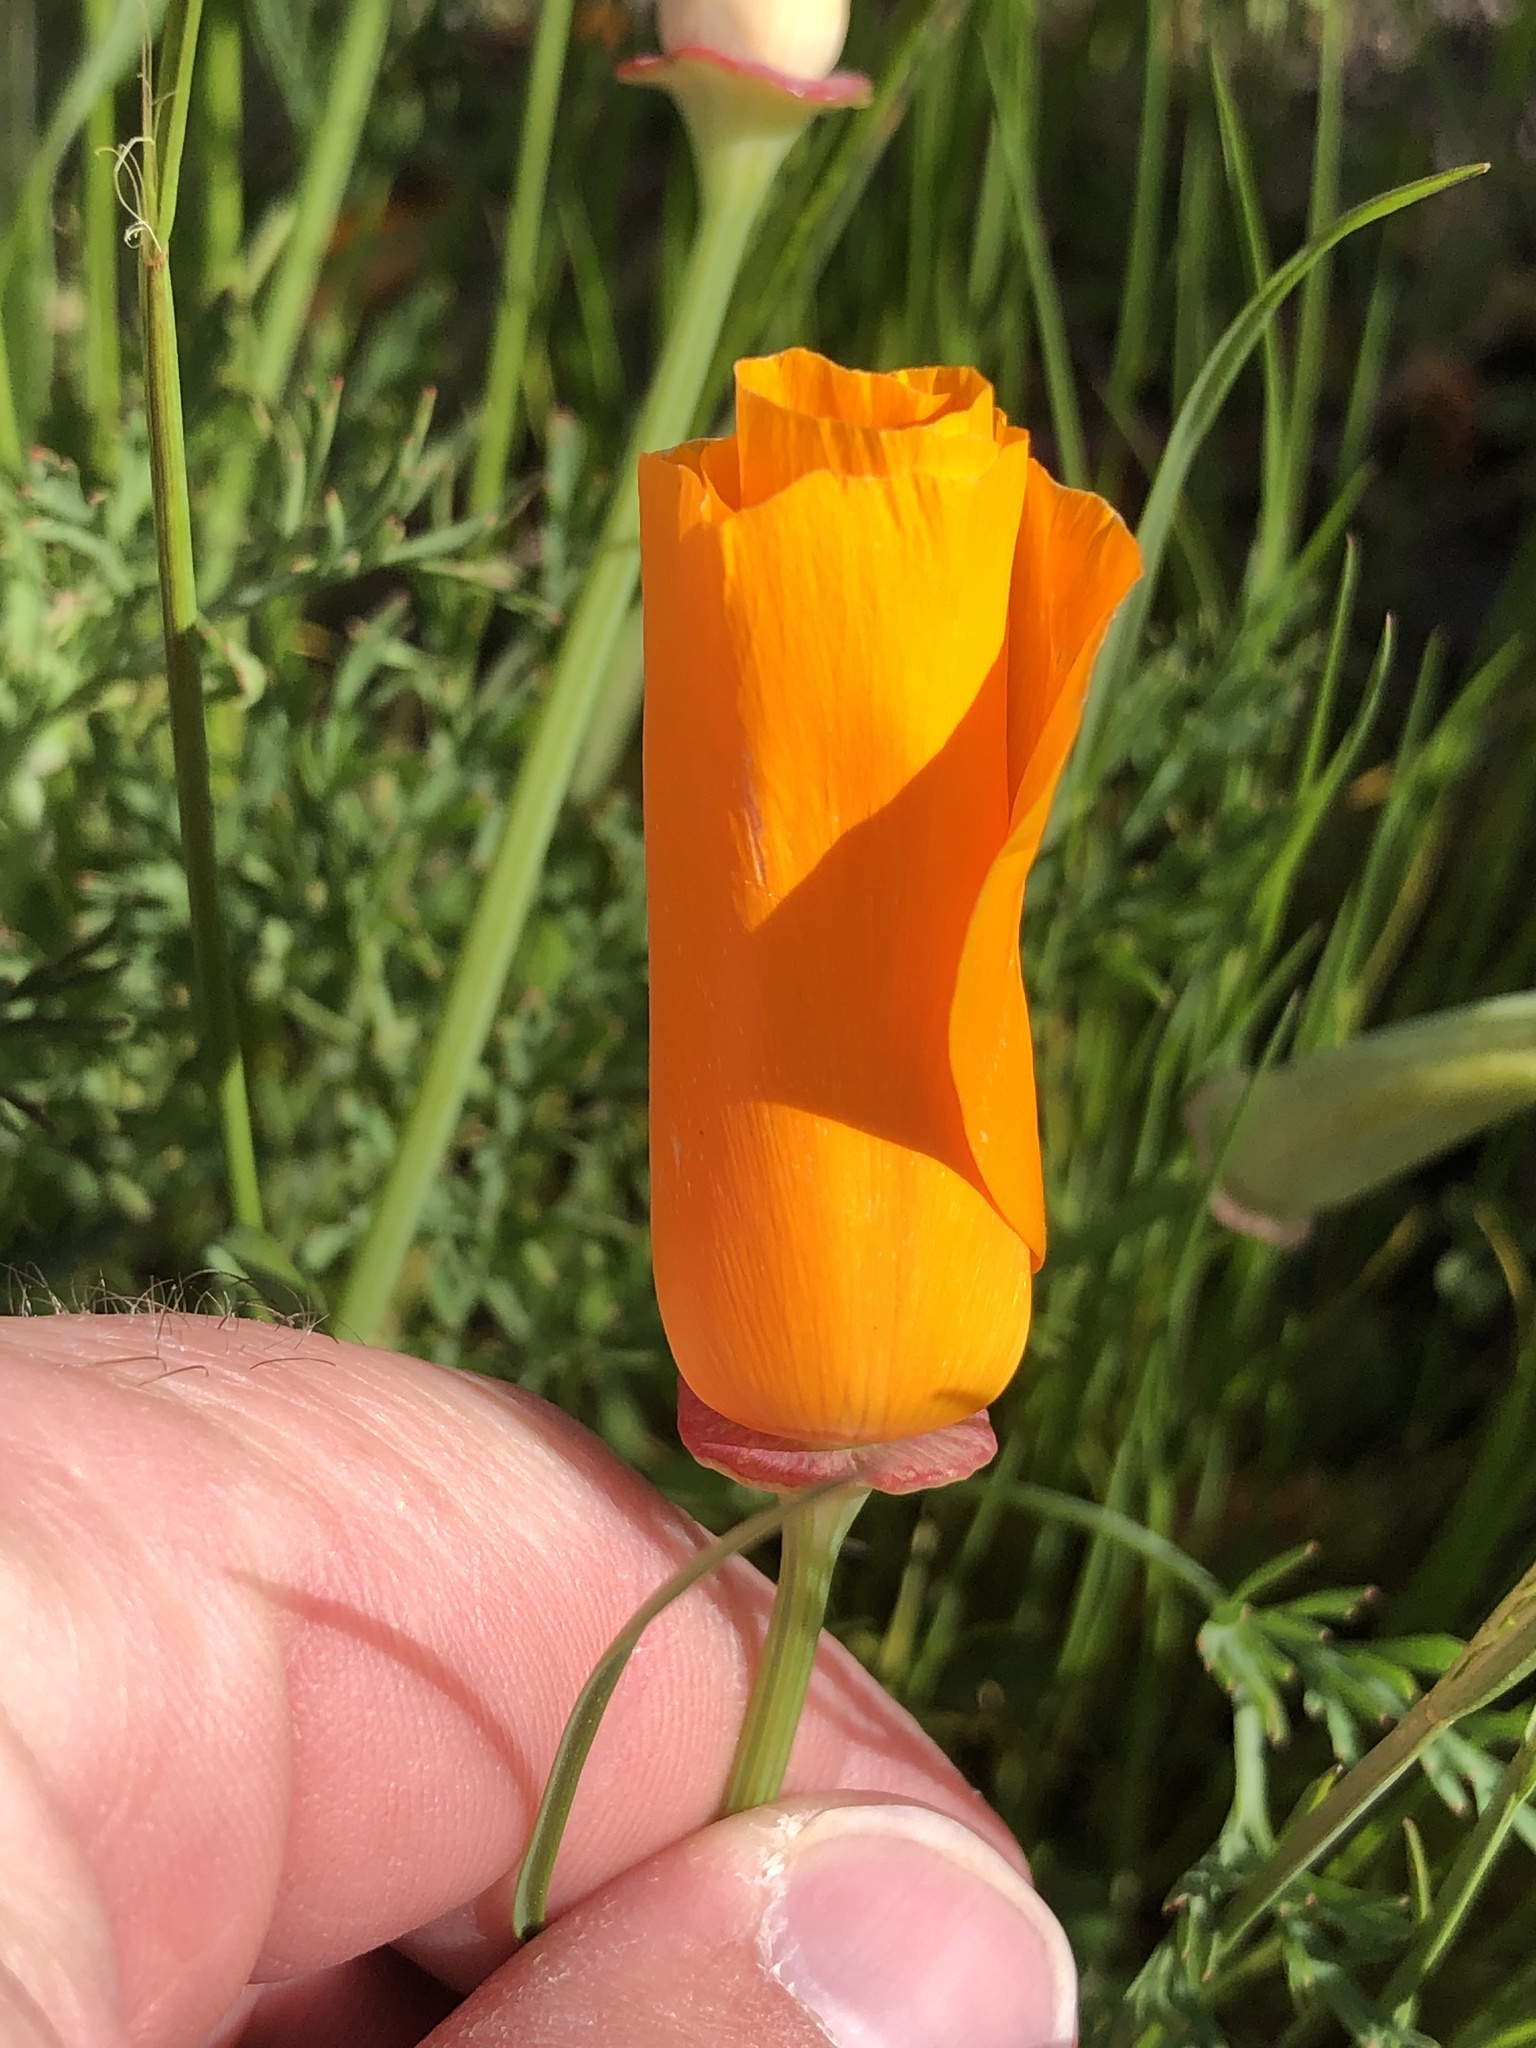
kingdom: Plantae
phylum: Tracheophyta
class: Magnoliopsida
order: Ranunculales
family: Papaveraceae
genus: Eschscholzia
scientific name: Eschscholzia californica
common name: California poppy
